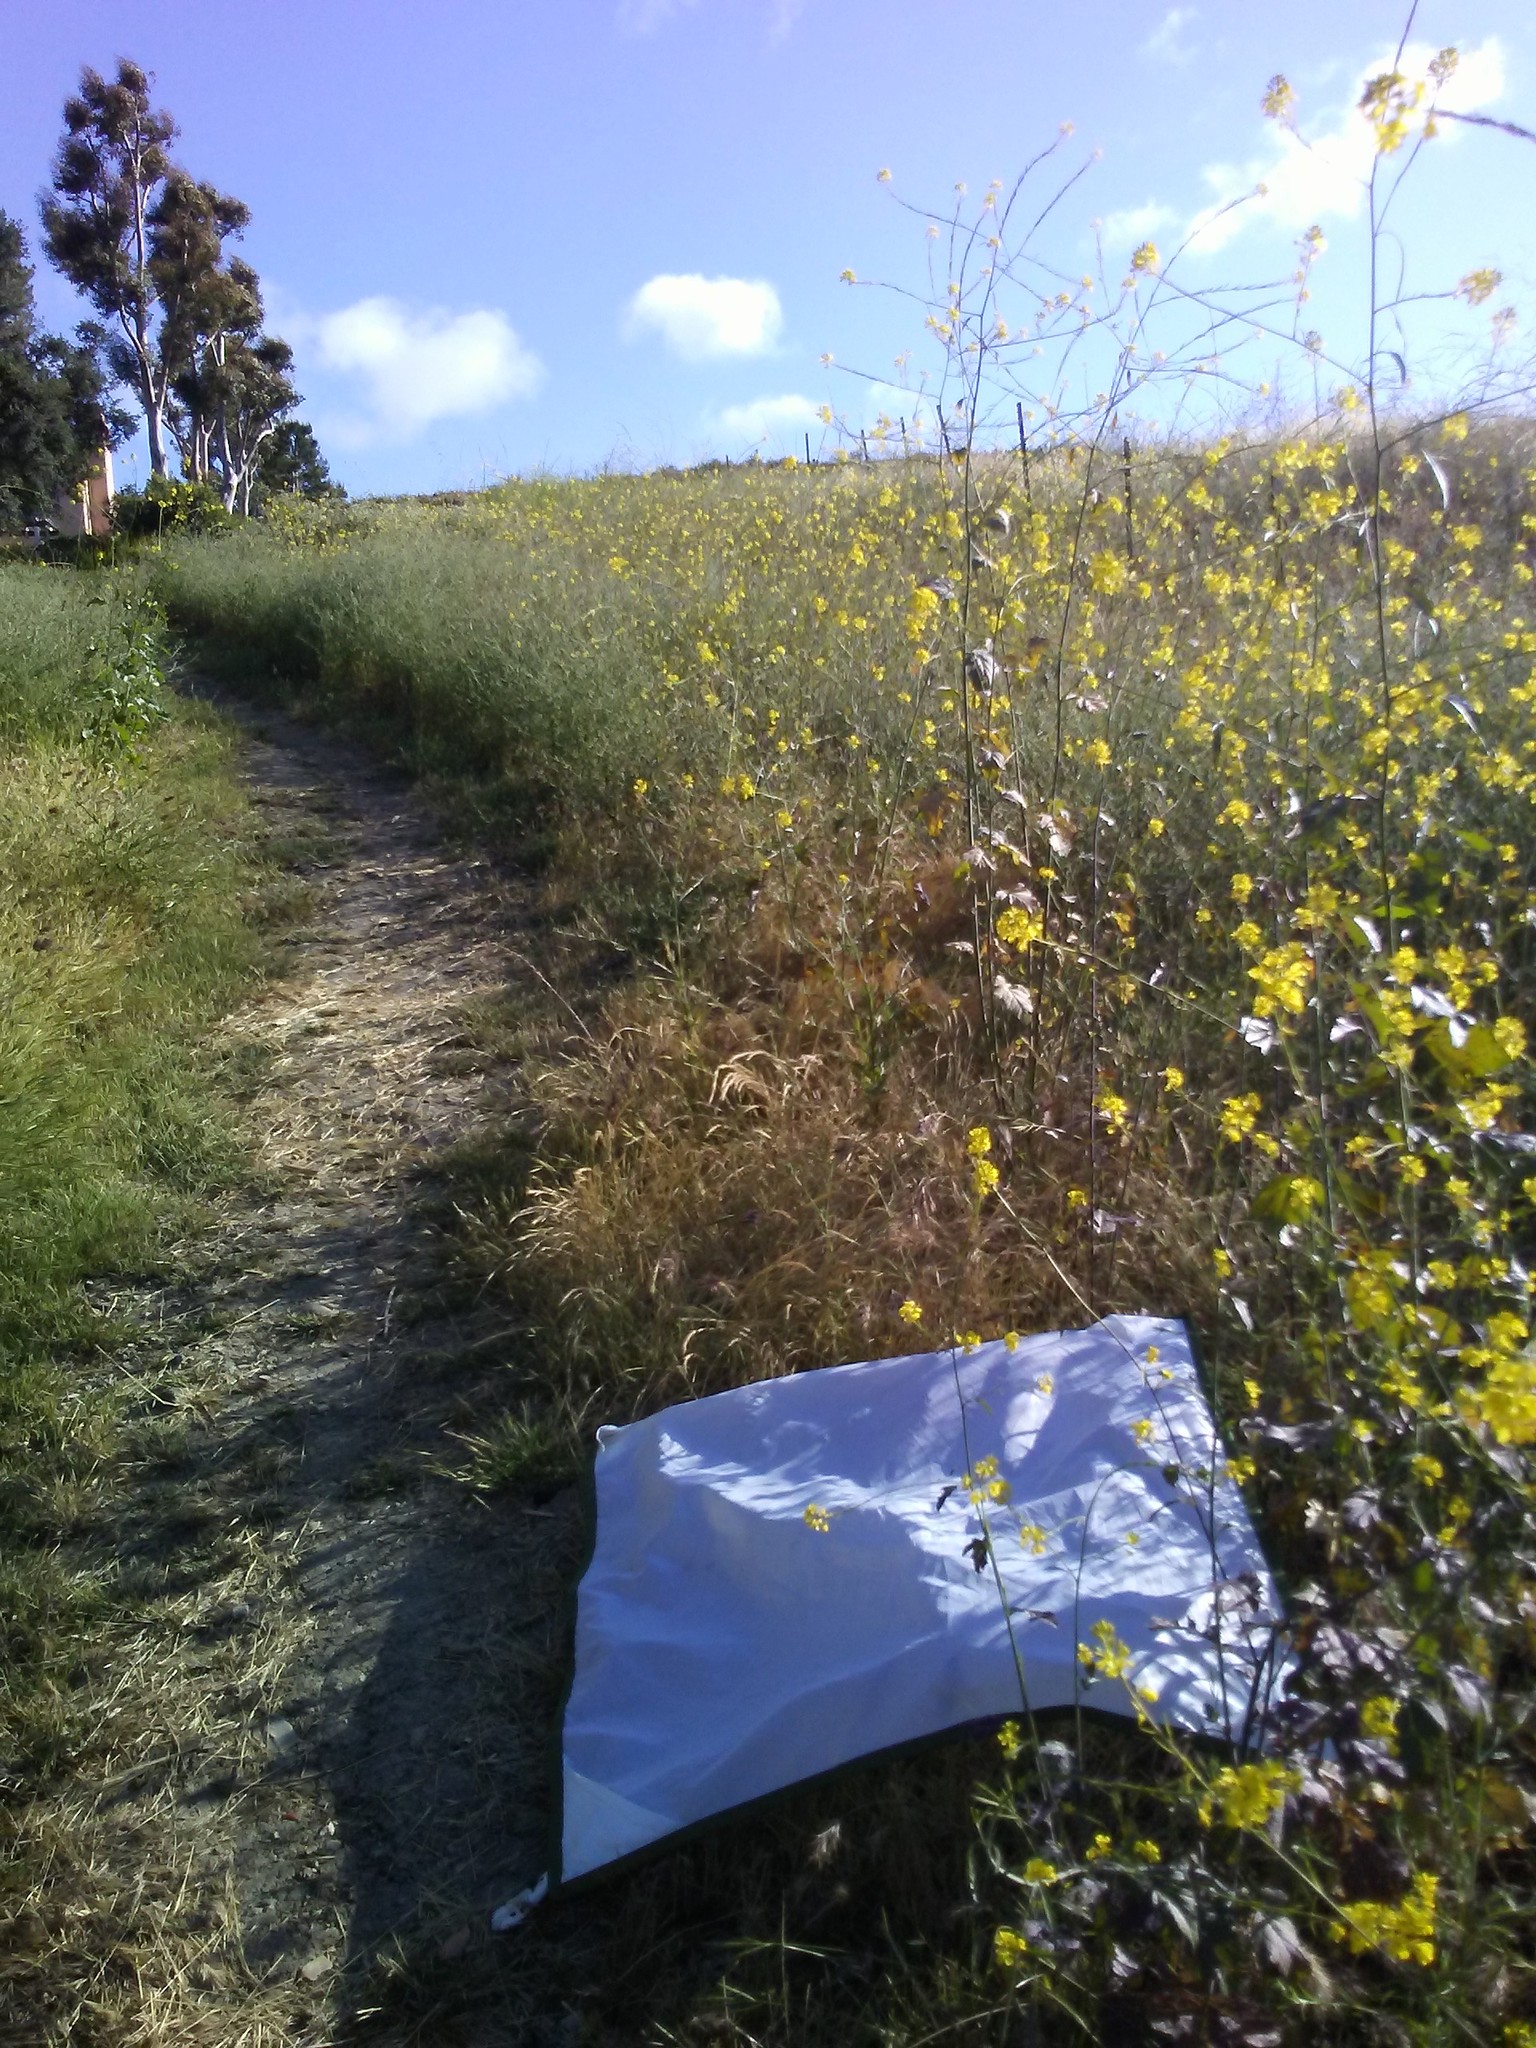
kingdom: Plantae
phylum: Tracheophyta
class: Magnoliopsida
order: Brassicales
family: Brassicaceae
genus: Brassica
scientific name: Brassica nigra
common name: Black mustard
